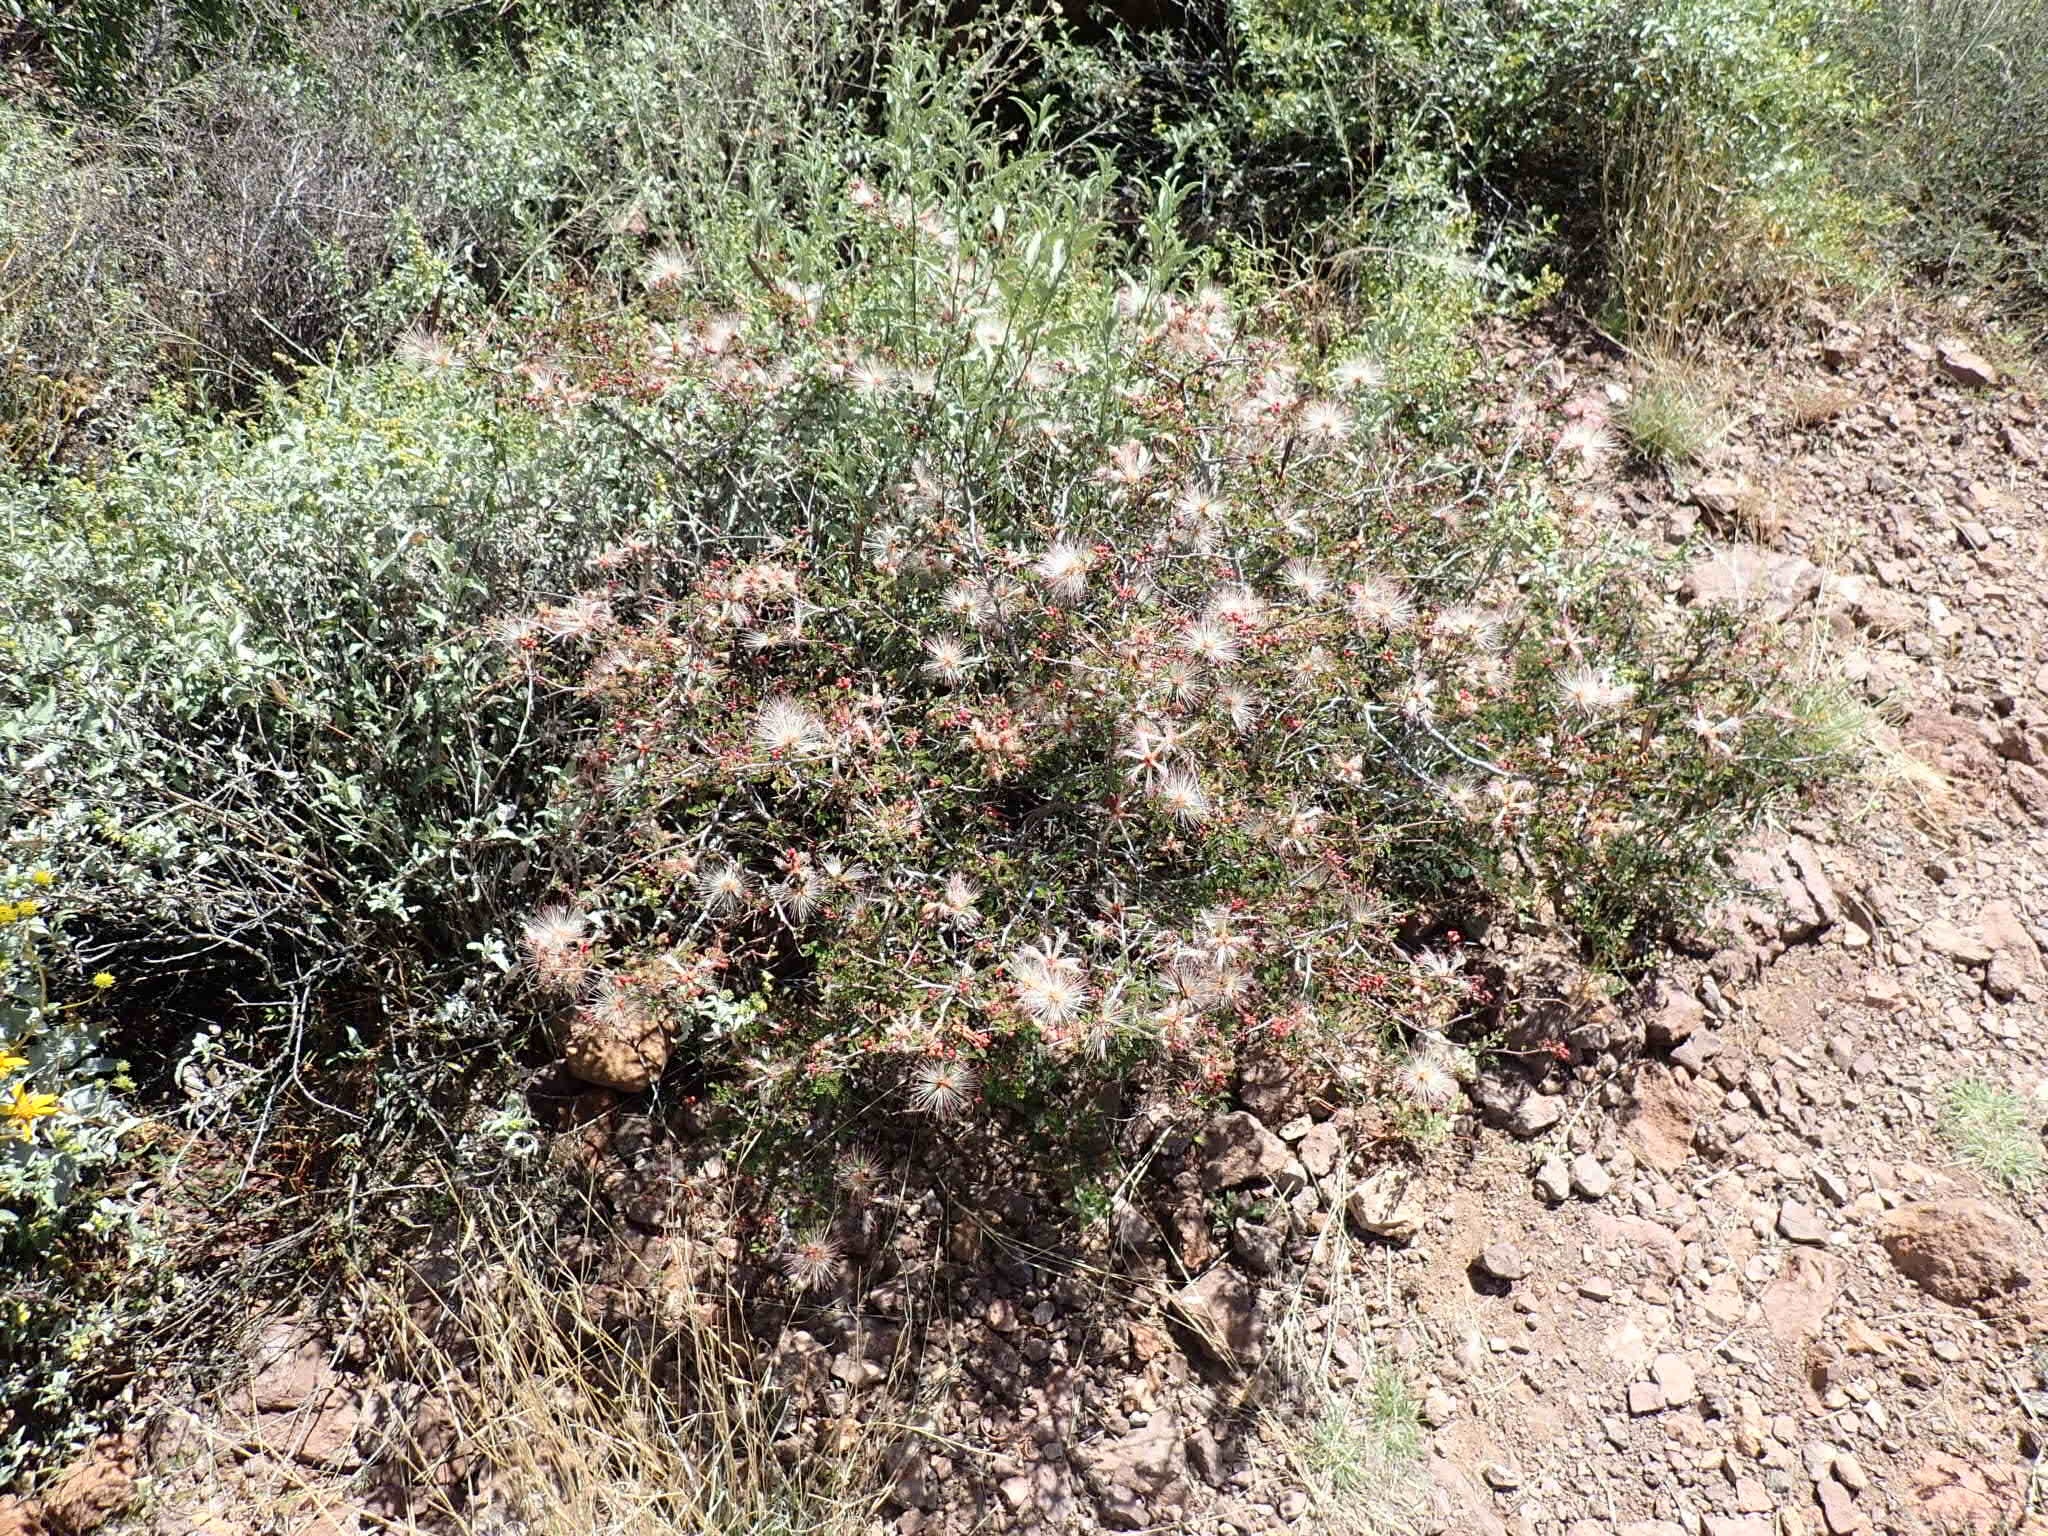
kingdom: Plantae
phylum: Tracheophyta
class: Magnoliopsida
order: Fabales
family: Fabaceae
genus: Calliandra
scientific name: Calliandra eriophylla
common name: Fairy-duster
